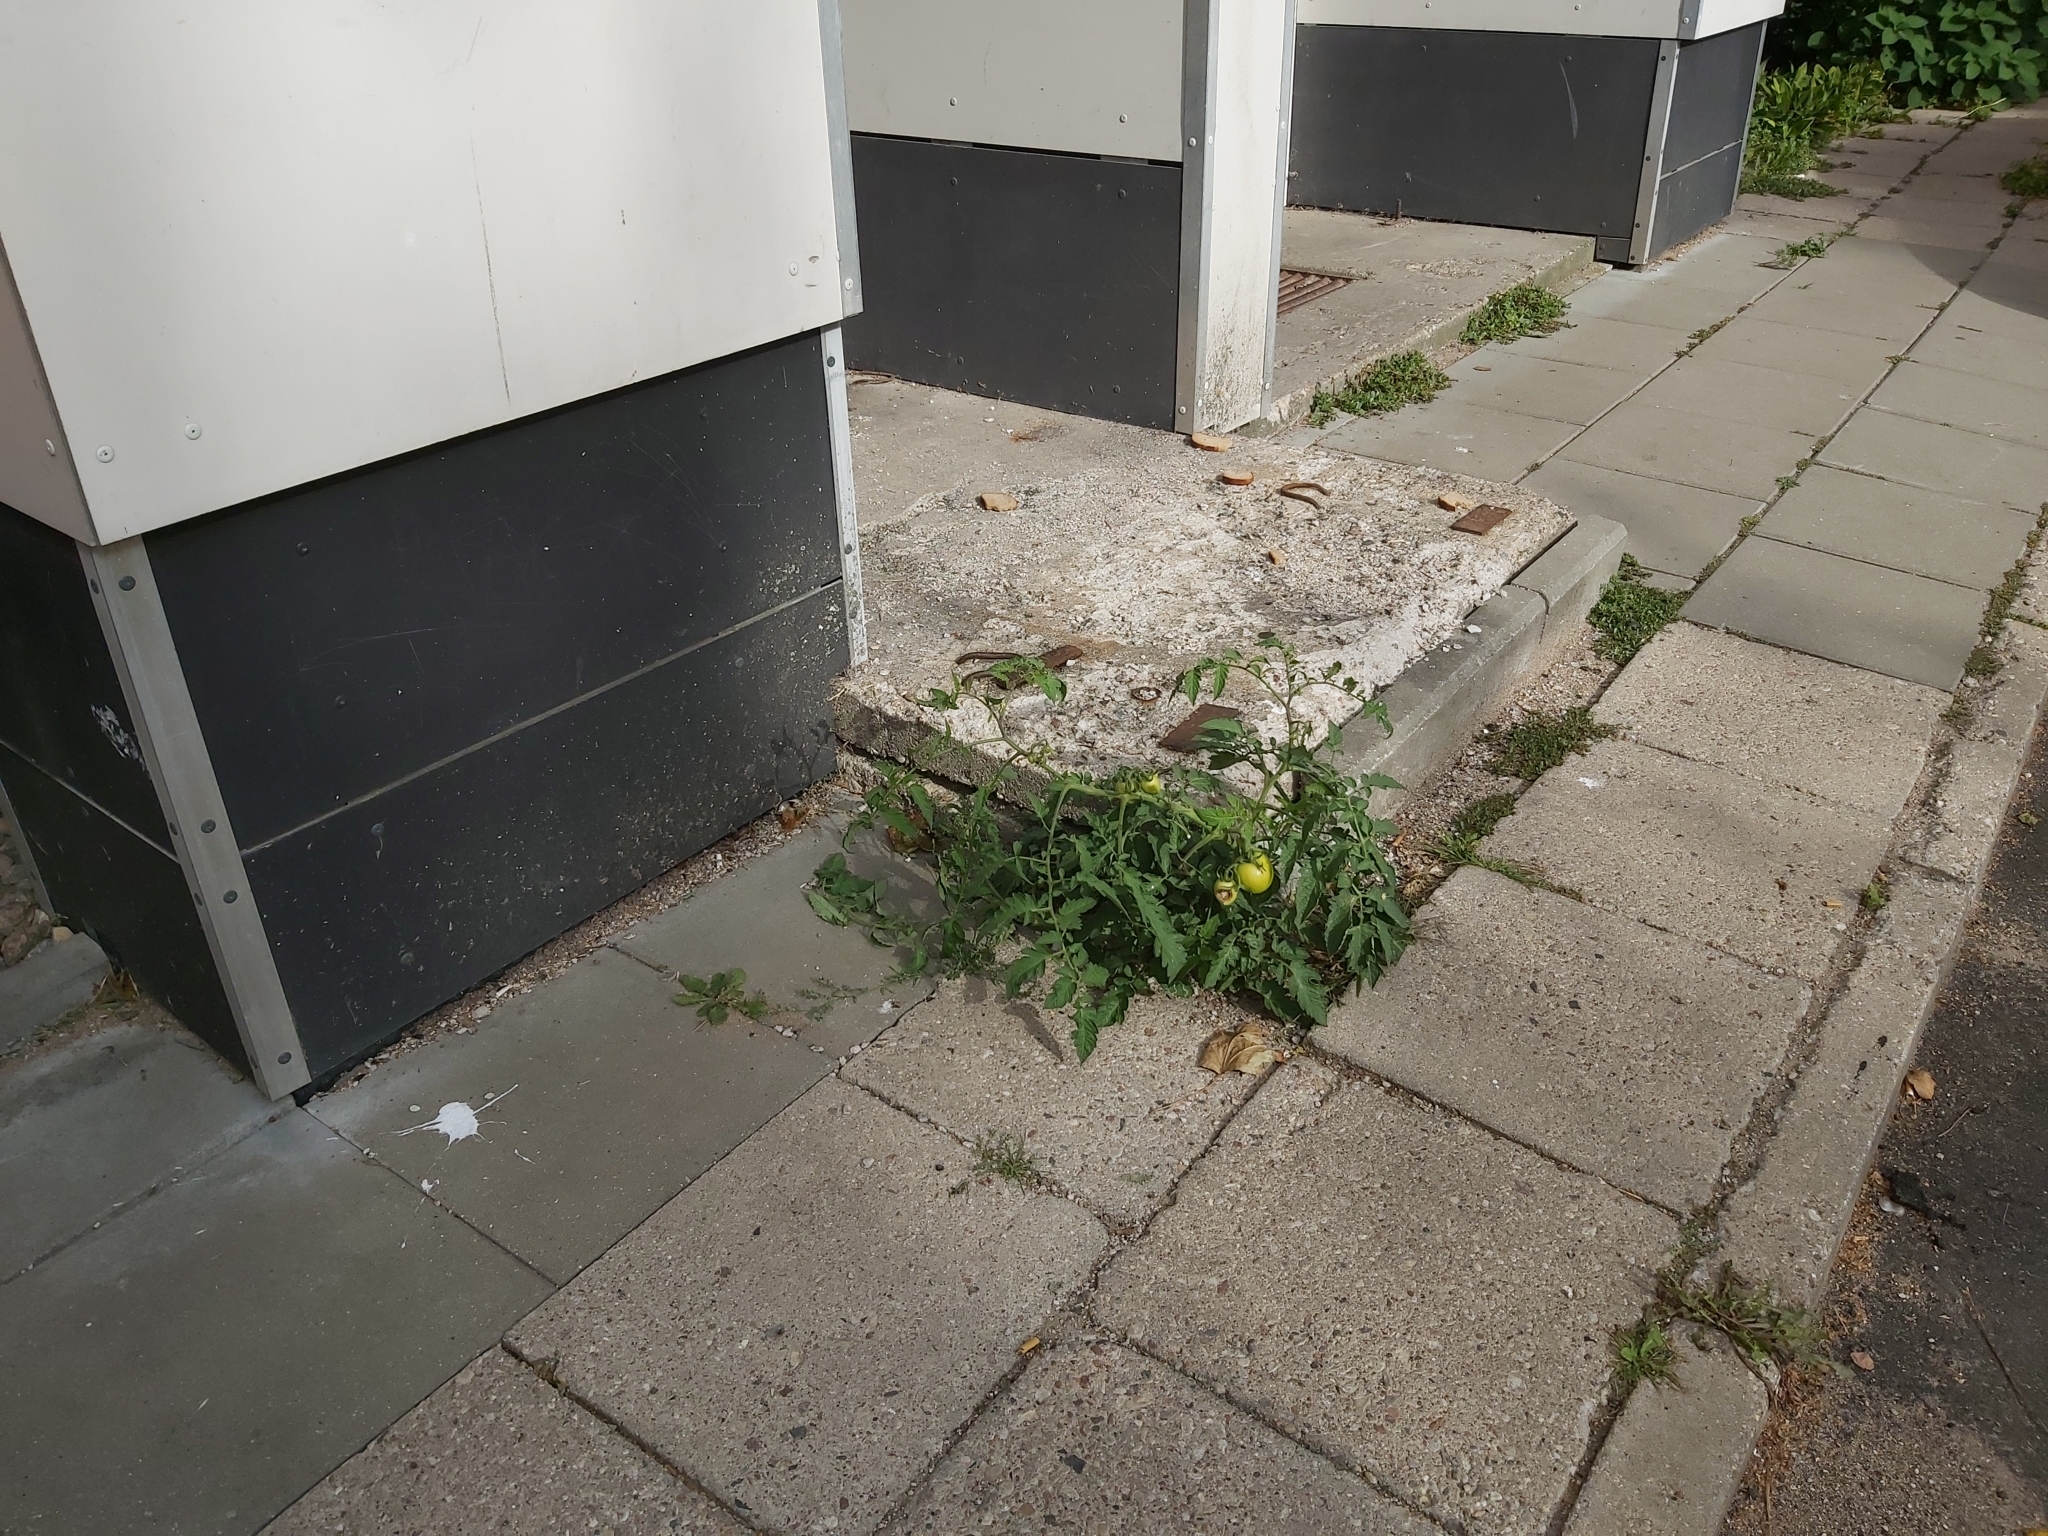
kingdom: Plantae
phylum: Tracheophyta
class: Magnoliopsida
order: Solanales
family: Solanaceae
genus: Solanum
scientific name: Solanum lycopersicum
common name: Garden tomato
